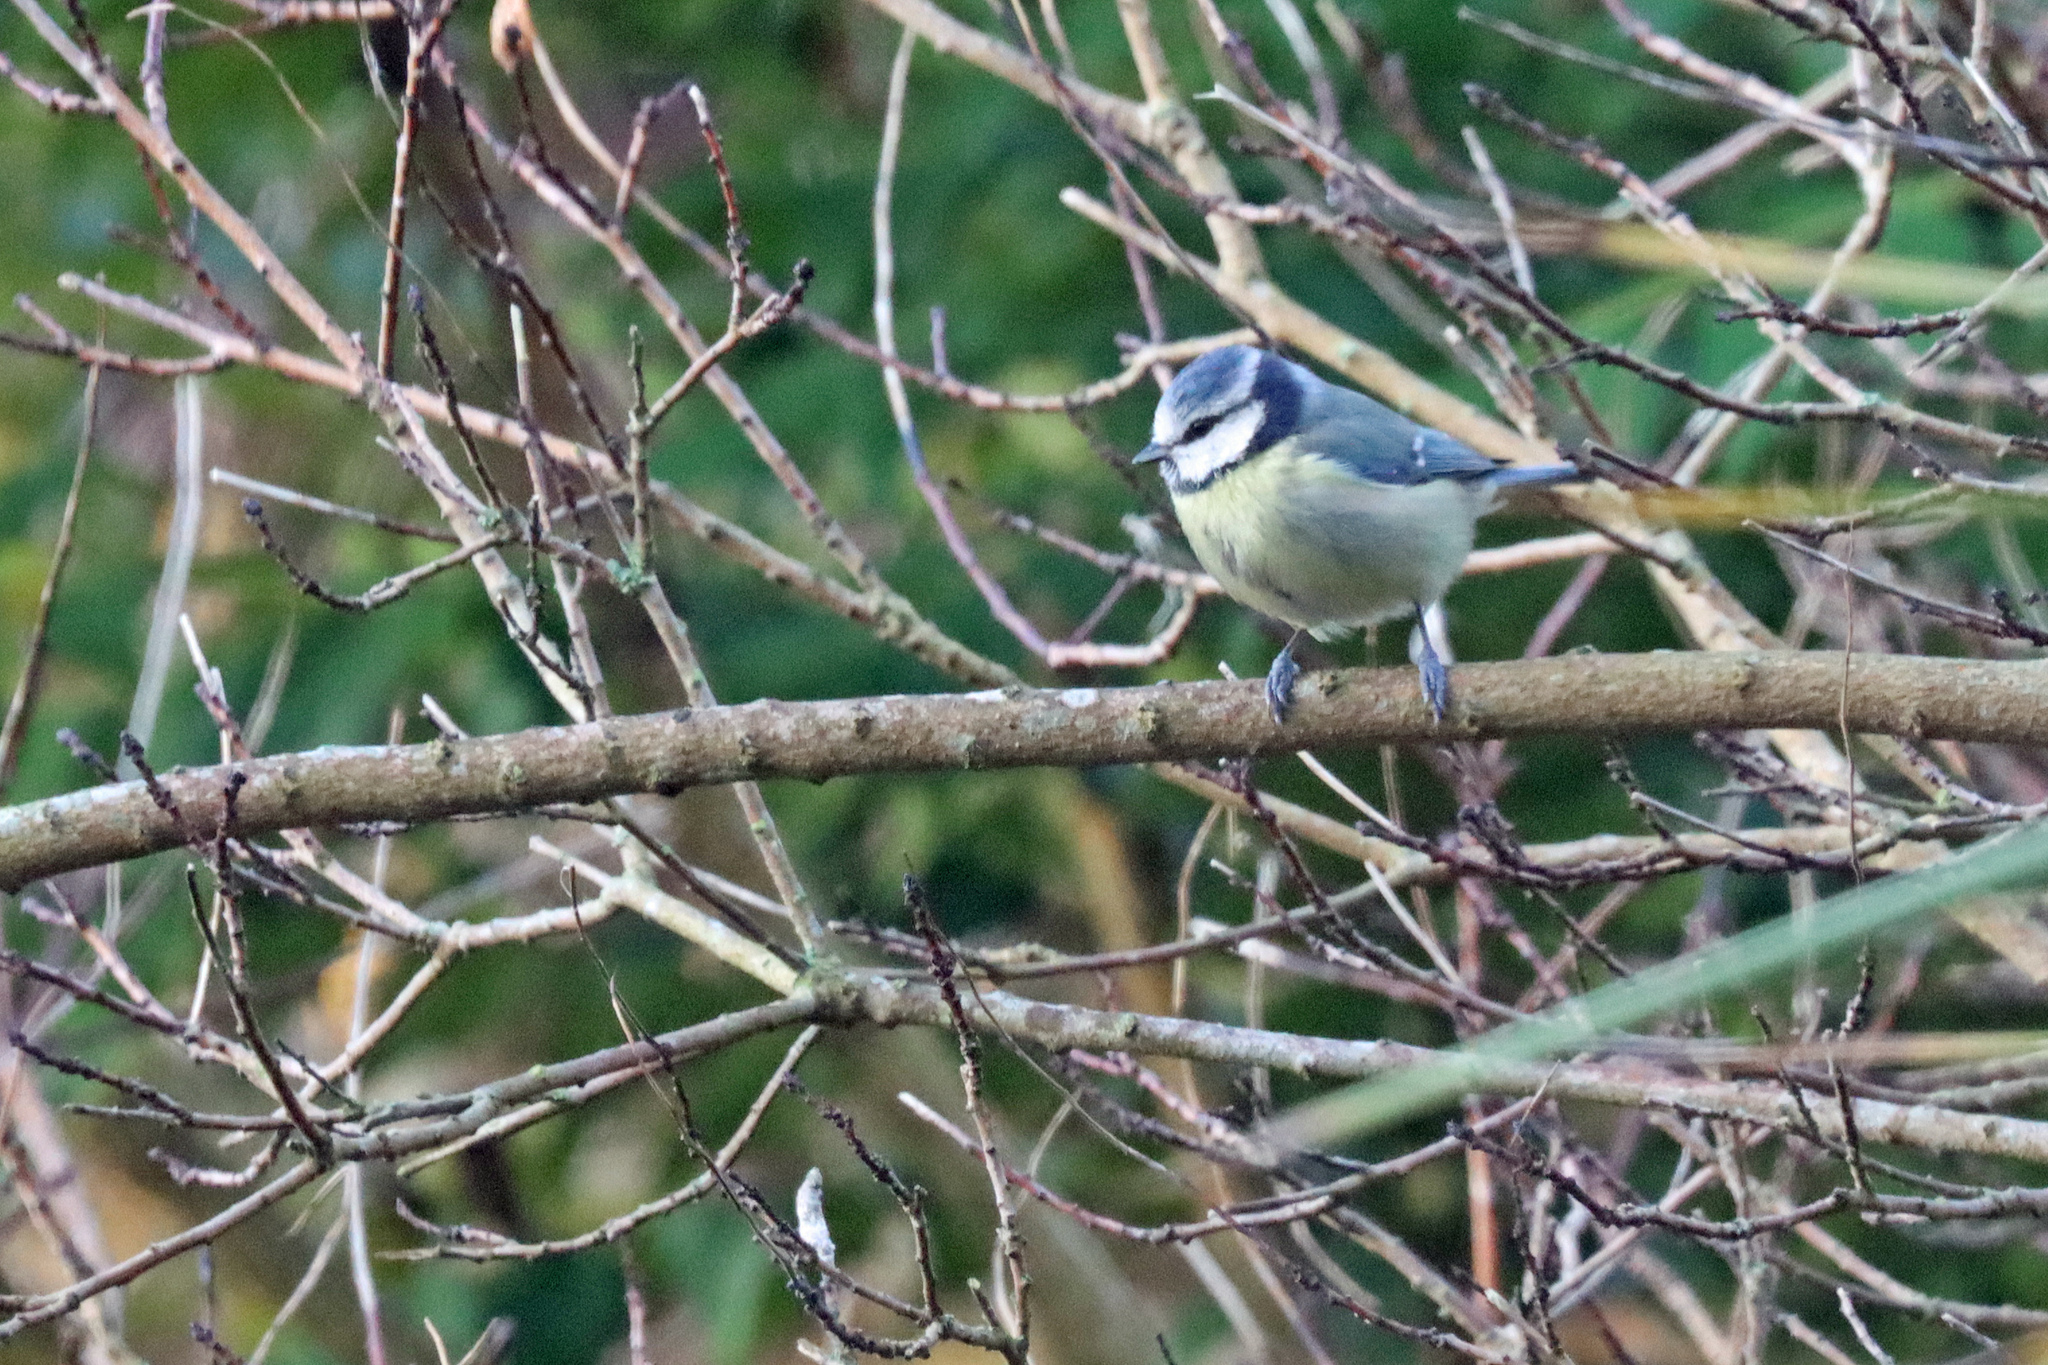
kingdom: Animalia
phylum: Chordata
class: Aves
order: Passeriformes
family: Paridae
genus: Cyanistes
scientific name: Cyanistes caeruleus
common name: Eurasian blue tit
